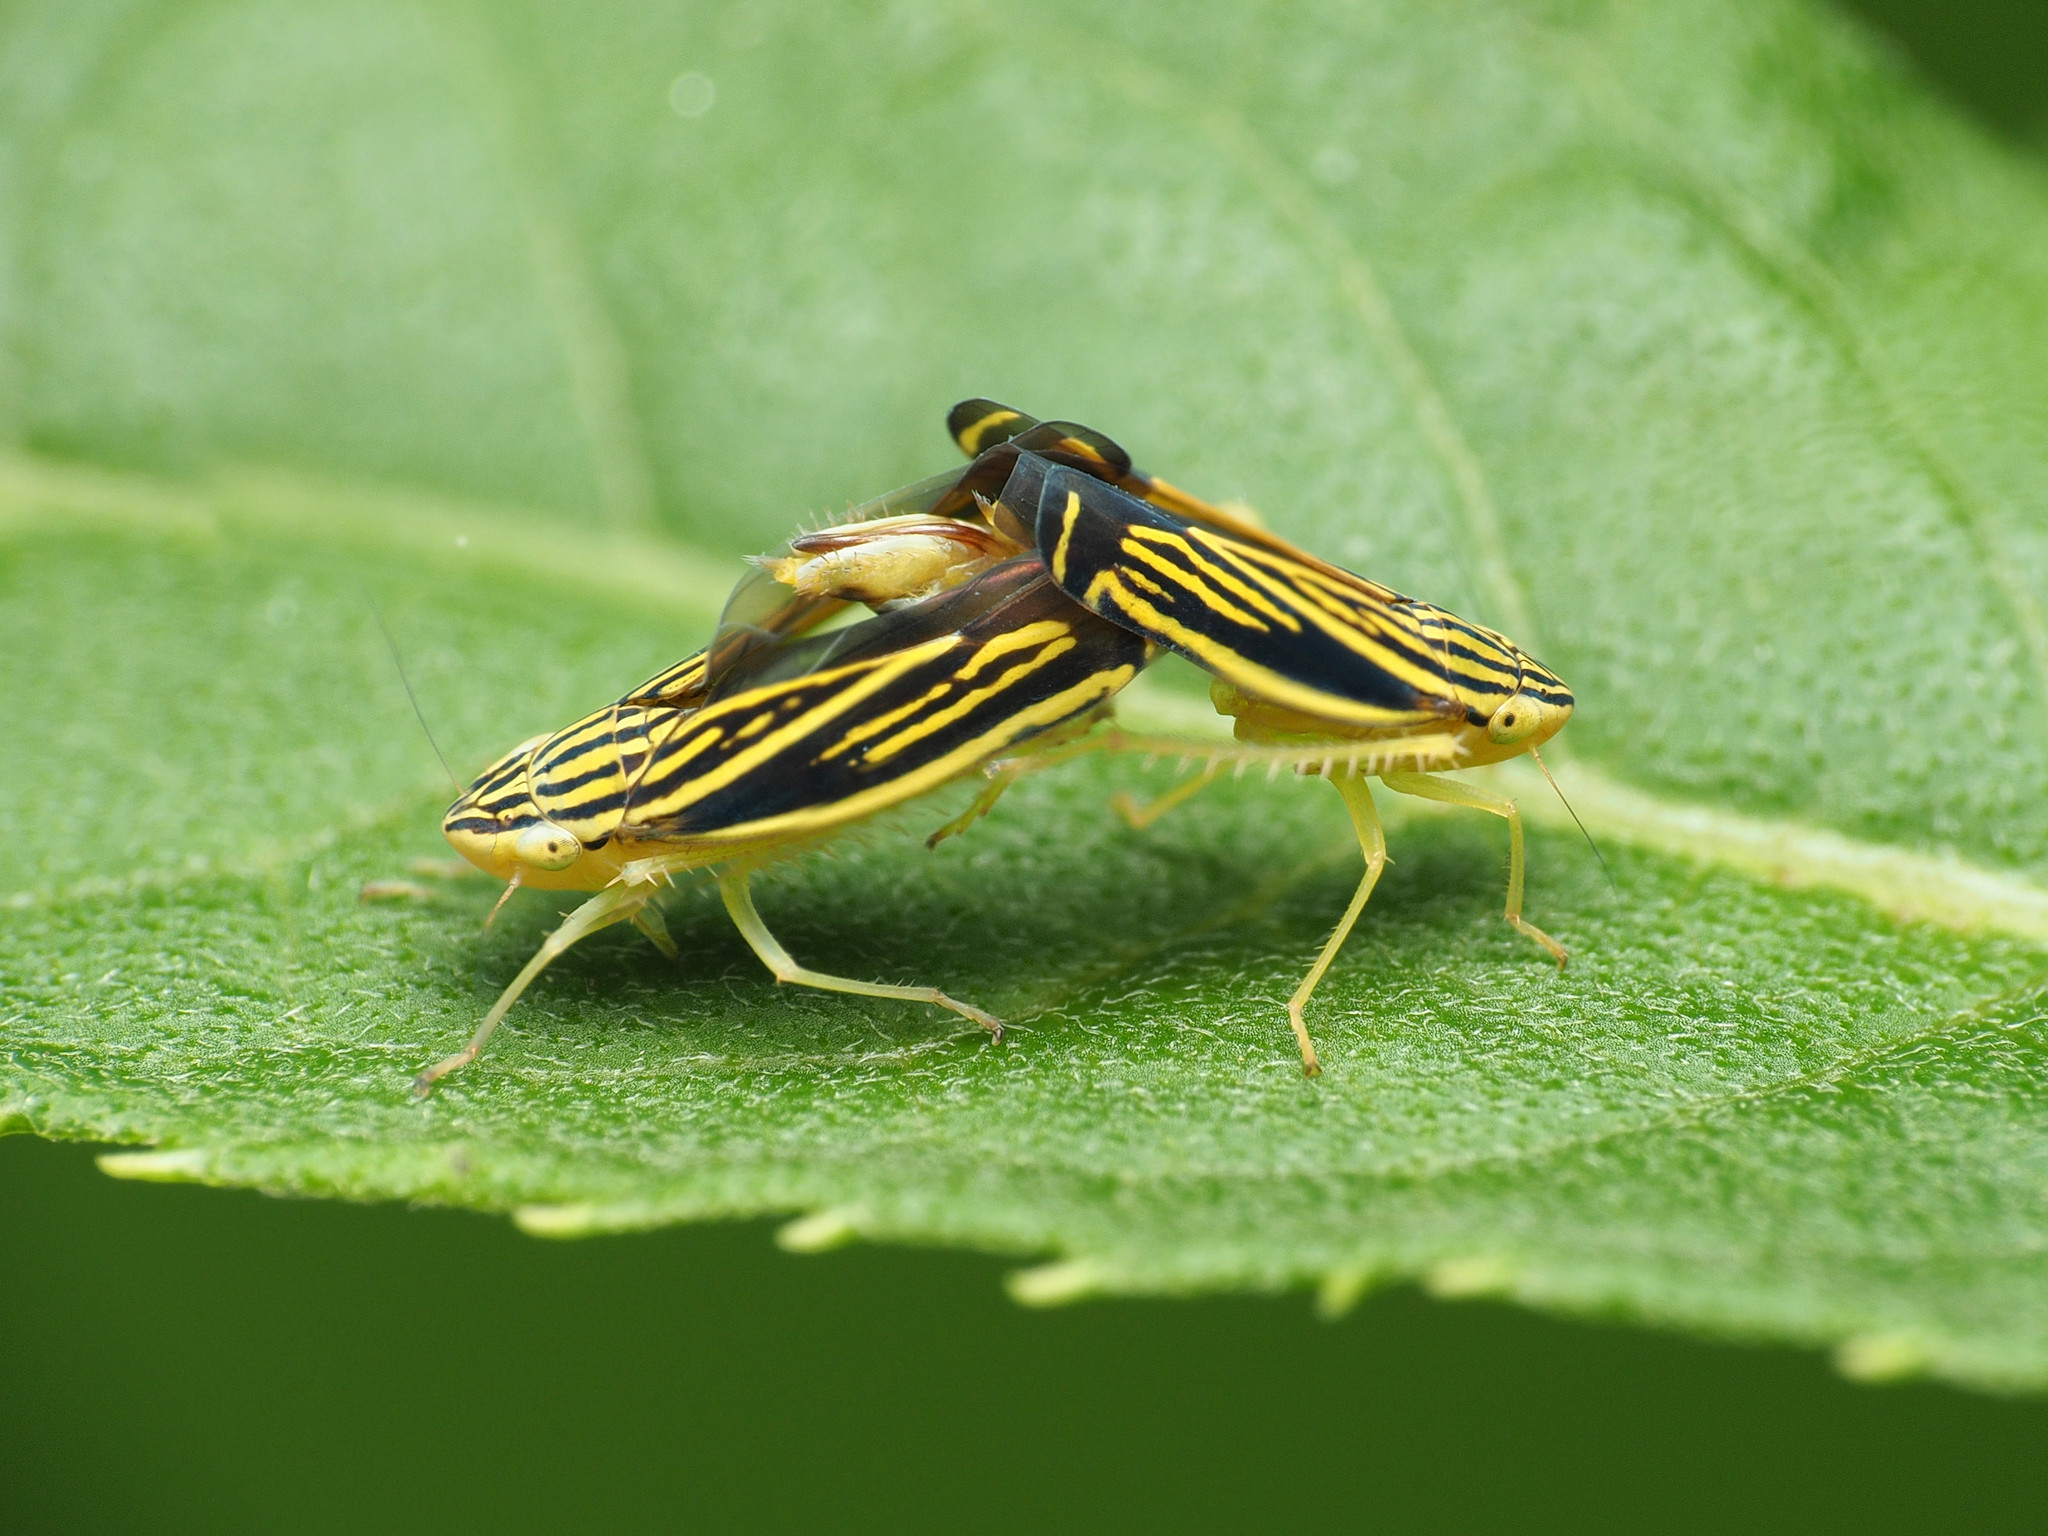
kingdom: Animalia
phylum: Arthropoda
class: Insecta
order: Hemiptera
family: Cicadellidae
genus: Sibovia
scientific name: Sibovia occatoria
